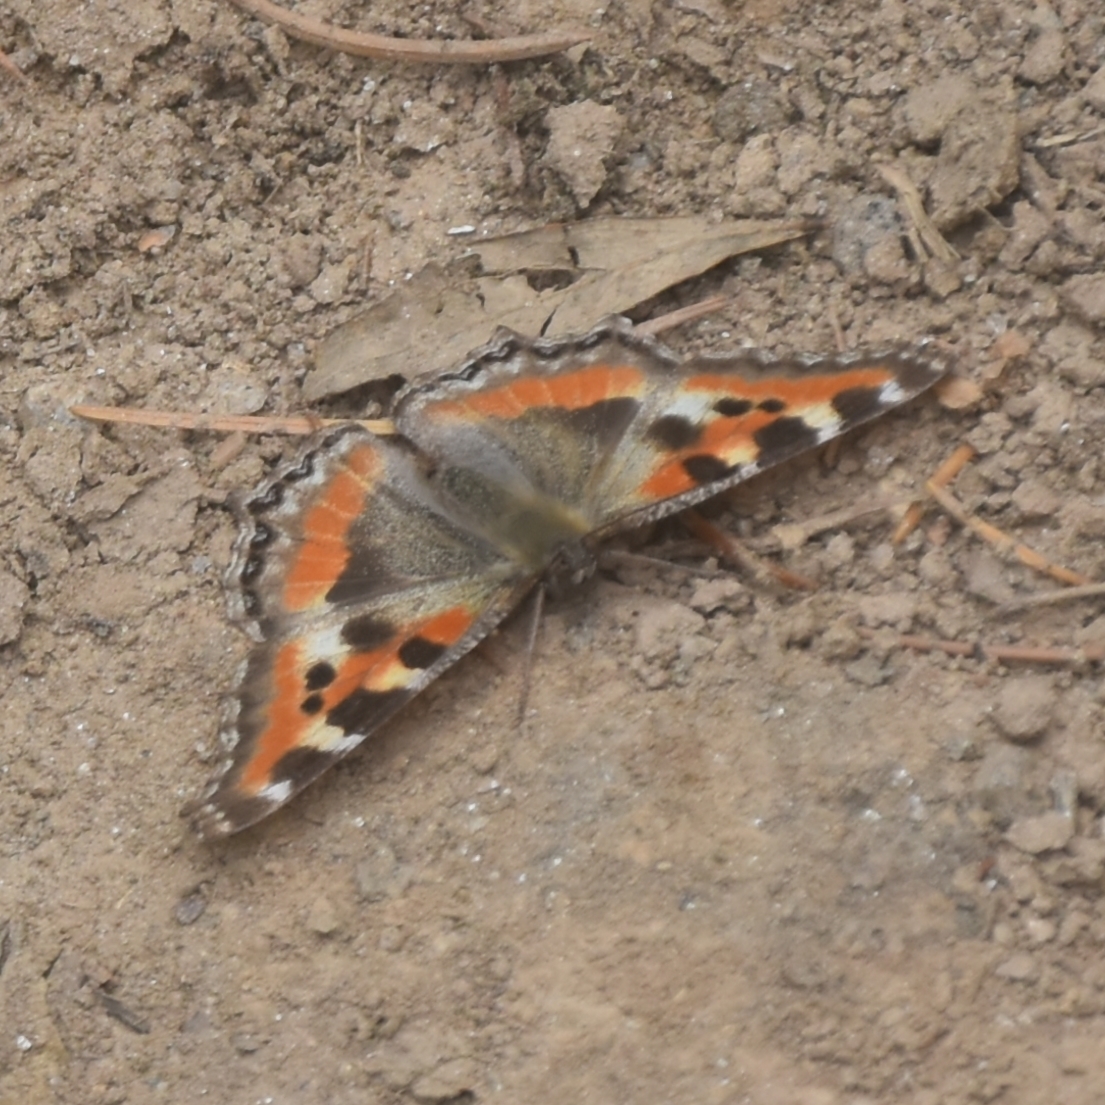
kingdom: Animalia
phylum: Arthropoda
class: Insecta
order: Lepidoptera
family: Nymphalidae
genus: Aglais
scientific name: Aglais caschmirensis
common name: Indian tortoiseshell
